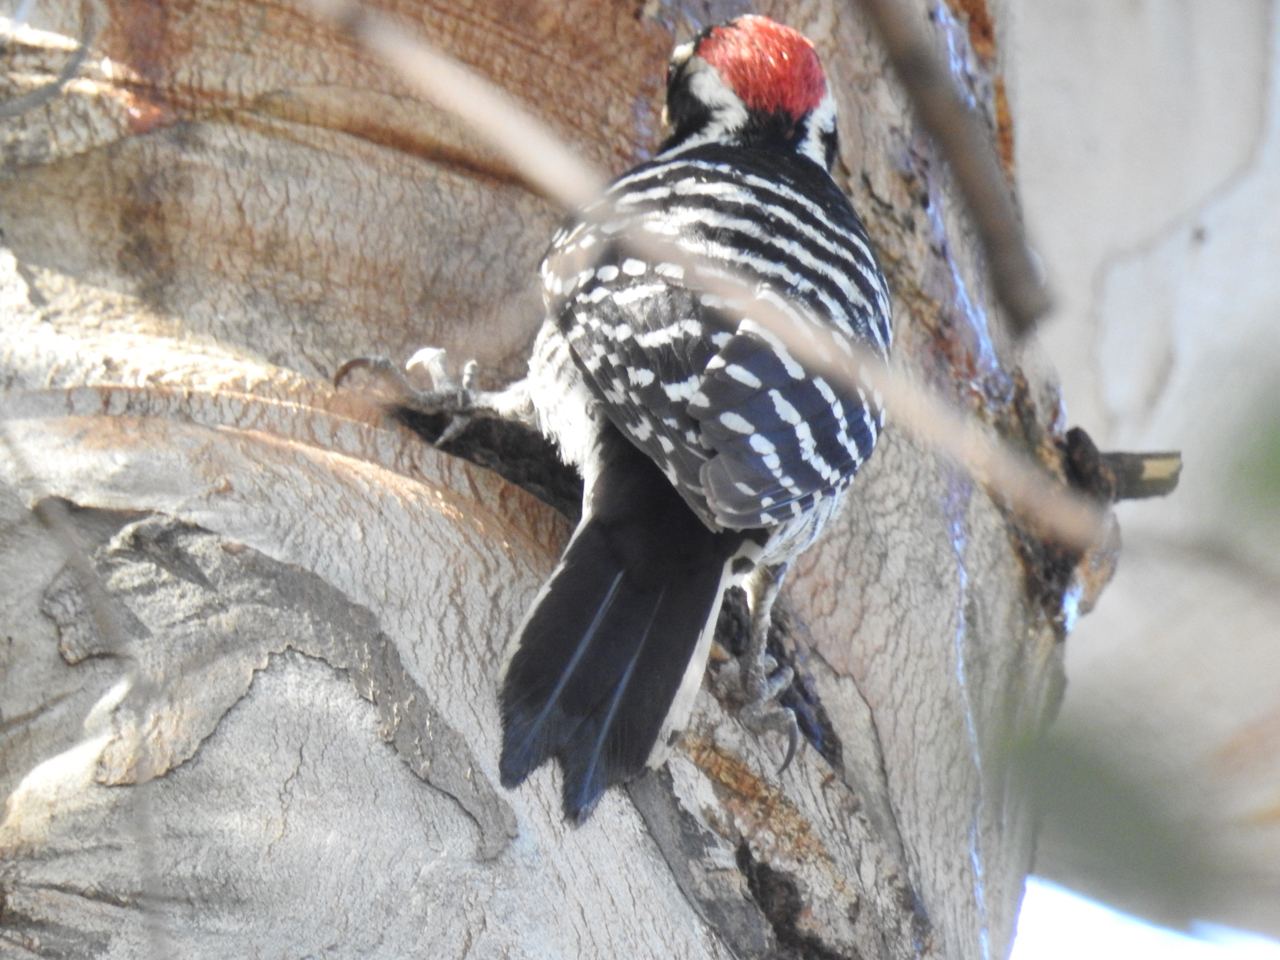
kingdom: Animalia
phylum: Chordata
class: Aves
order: Piciformes
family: Picidae
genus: Dryobates
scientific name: Dryobates nuttallii
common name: Nuttall's woodpecker
